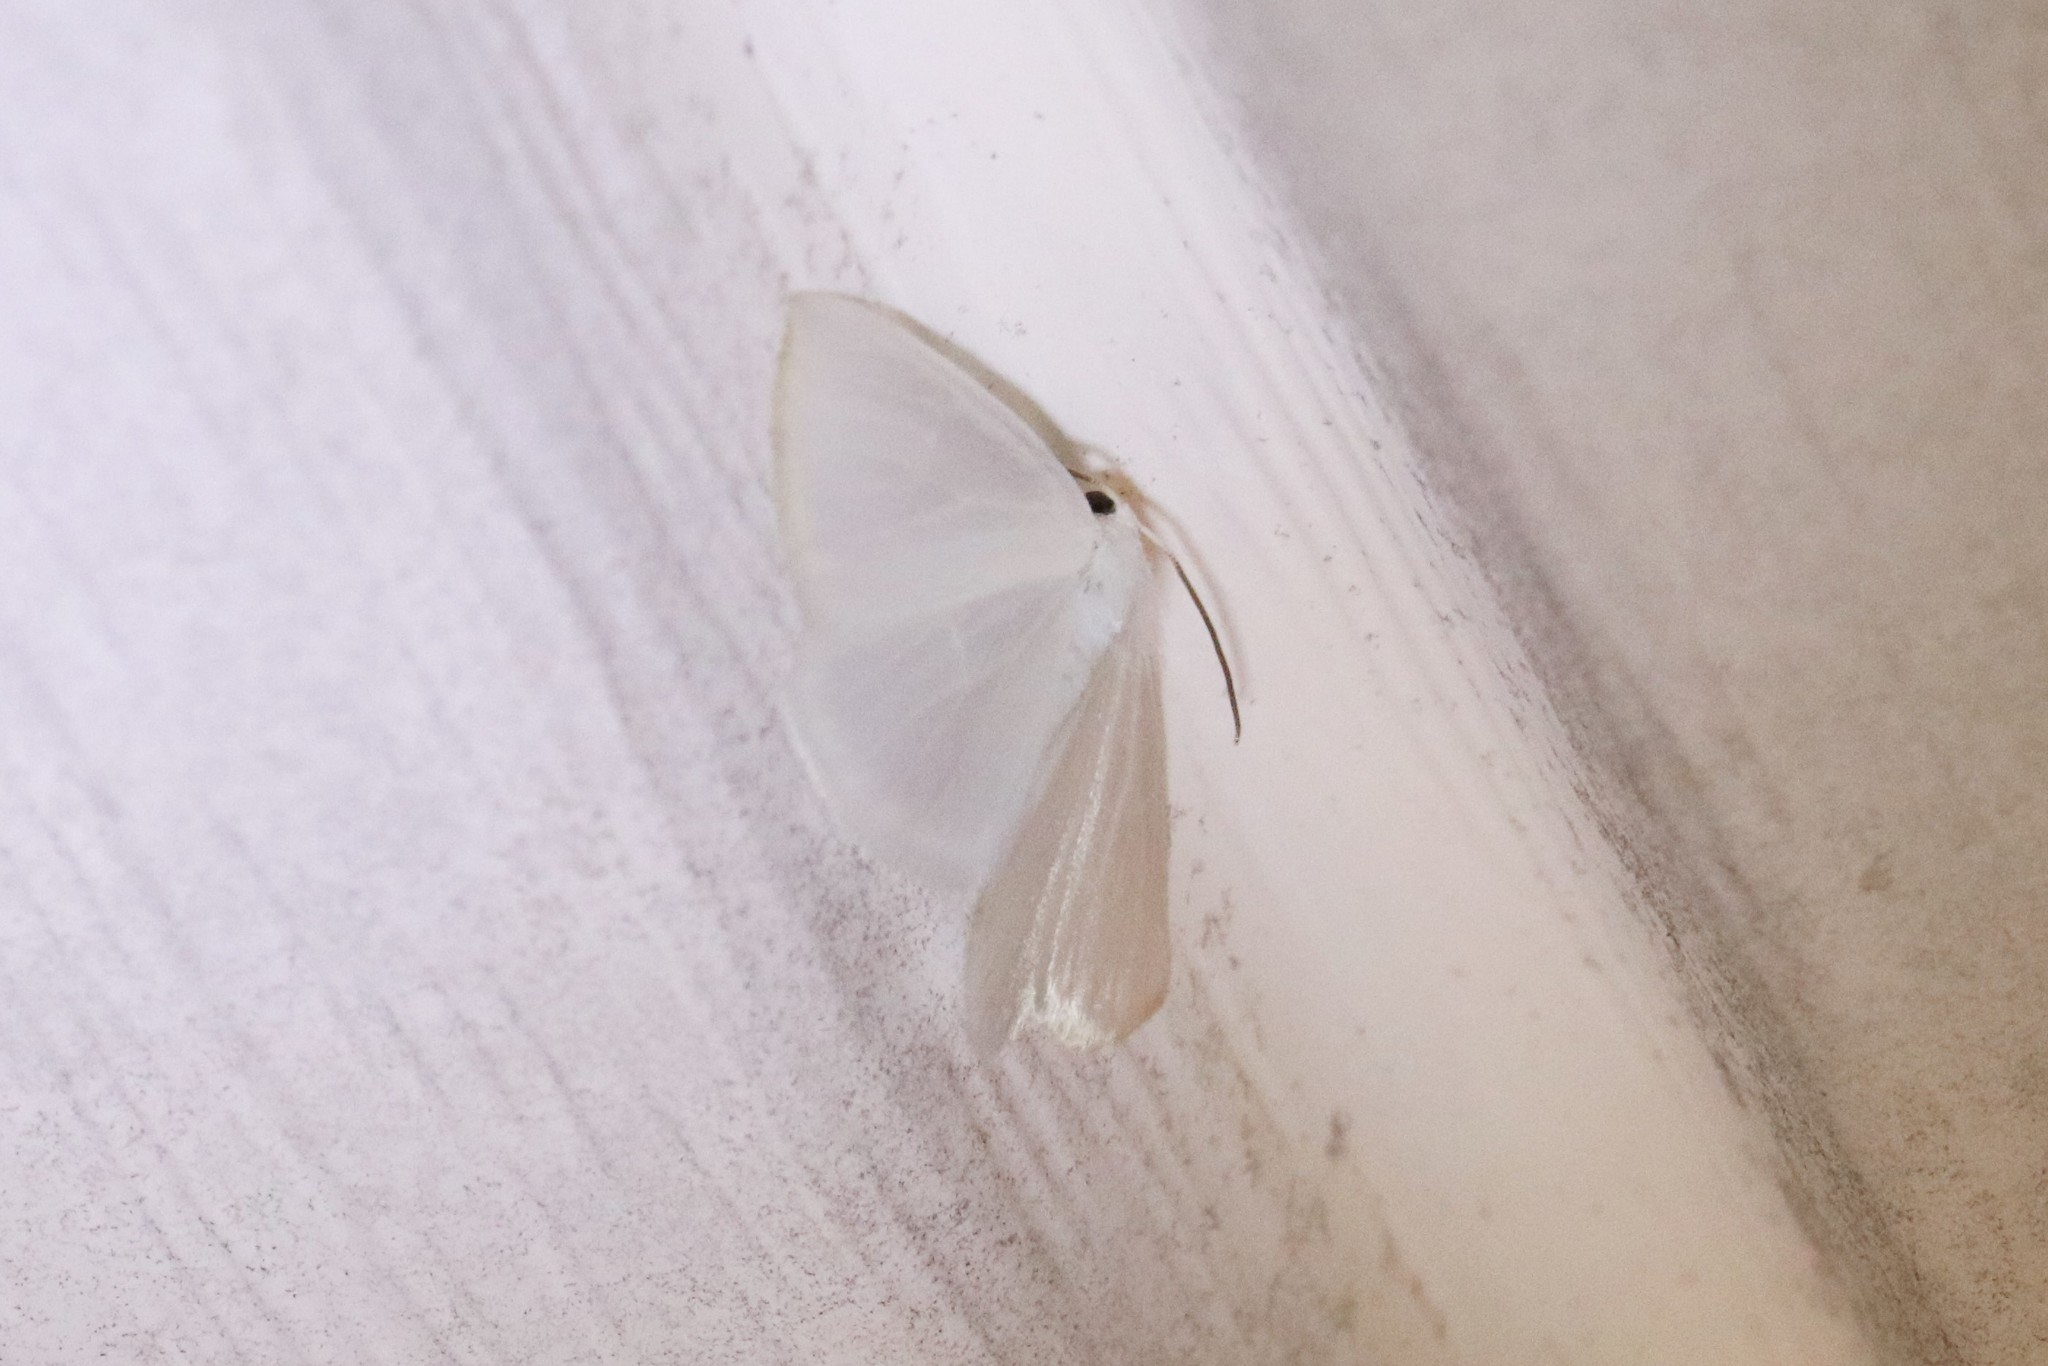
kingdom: Animalia
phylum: Arthropoda
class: Insecta
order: Lepidoptera
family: Geometridae
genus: Lomographa
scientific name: Lomographa vestaliata
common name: White spring moth
